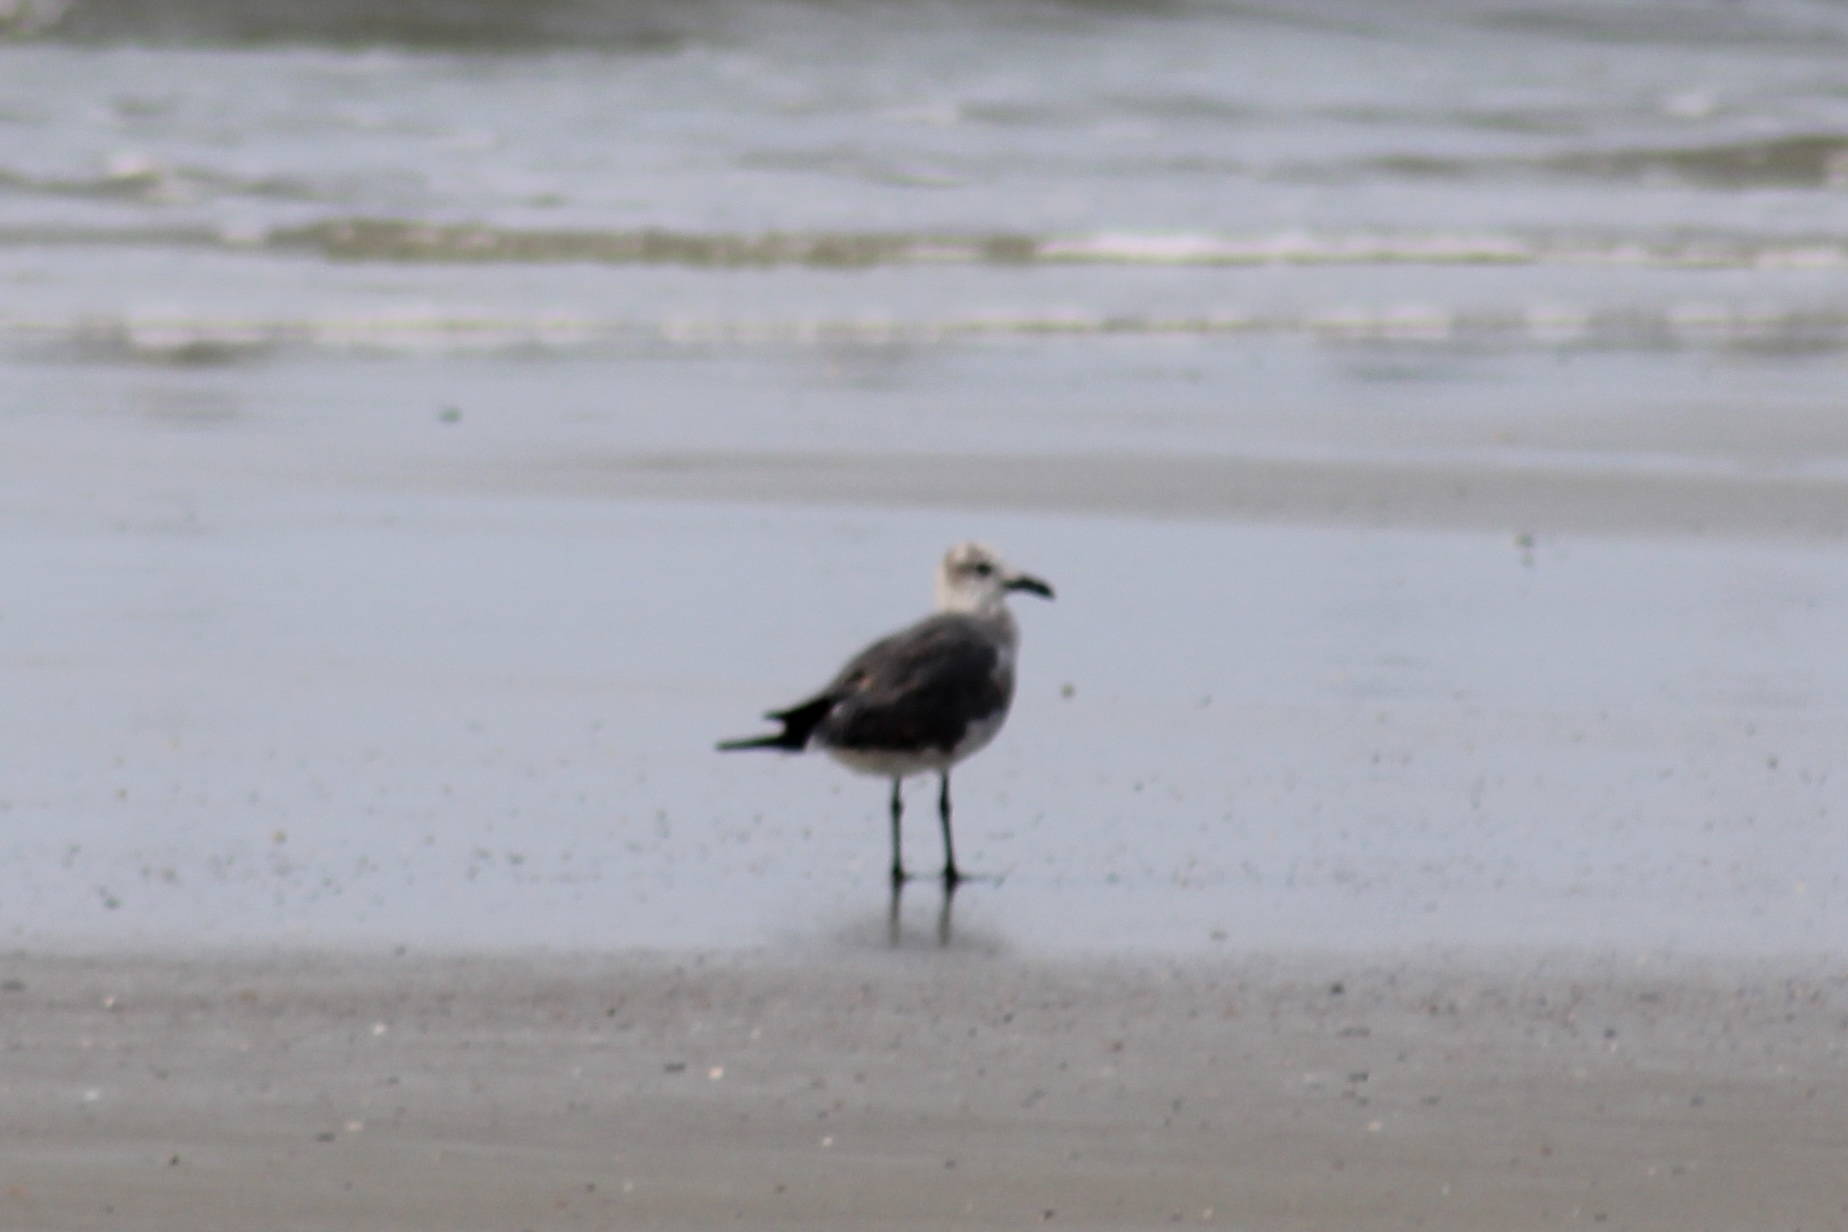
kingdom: Animalia
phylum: Chordata
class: Aves
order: Charadriiformes
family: Laridae
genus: Leucophaeus
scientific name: Leucophaeus atricilla
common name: Laughing gull
